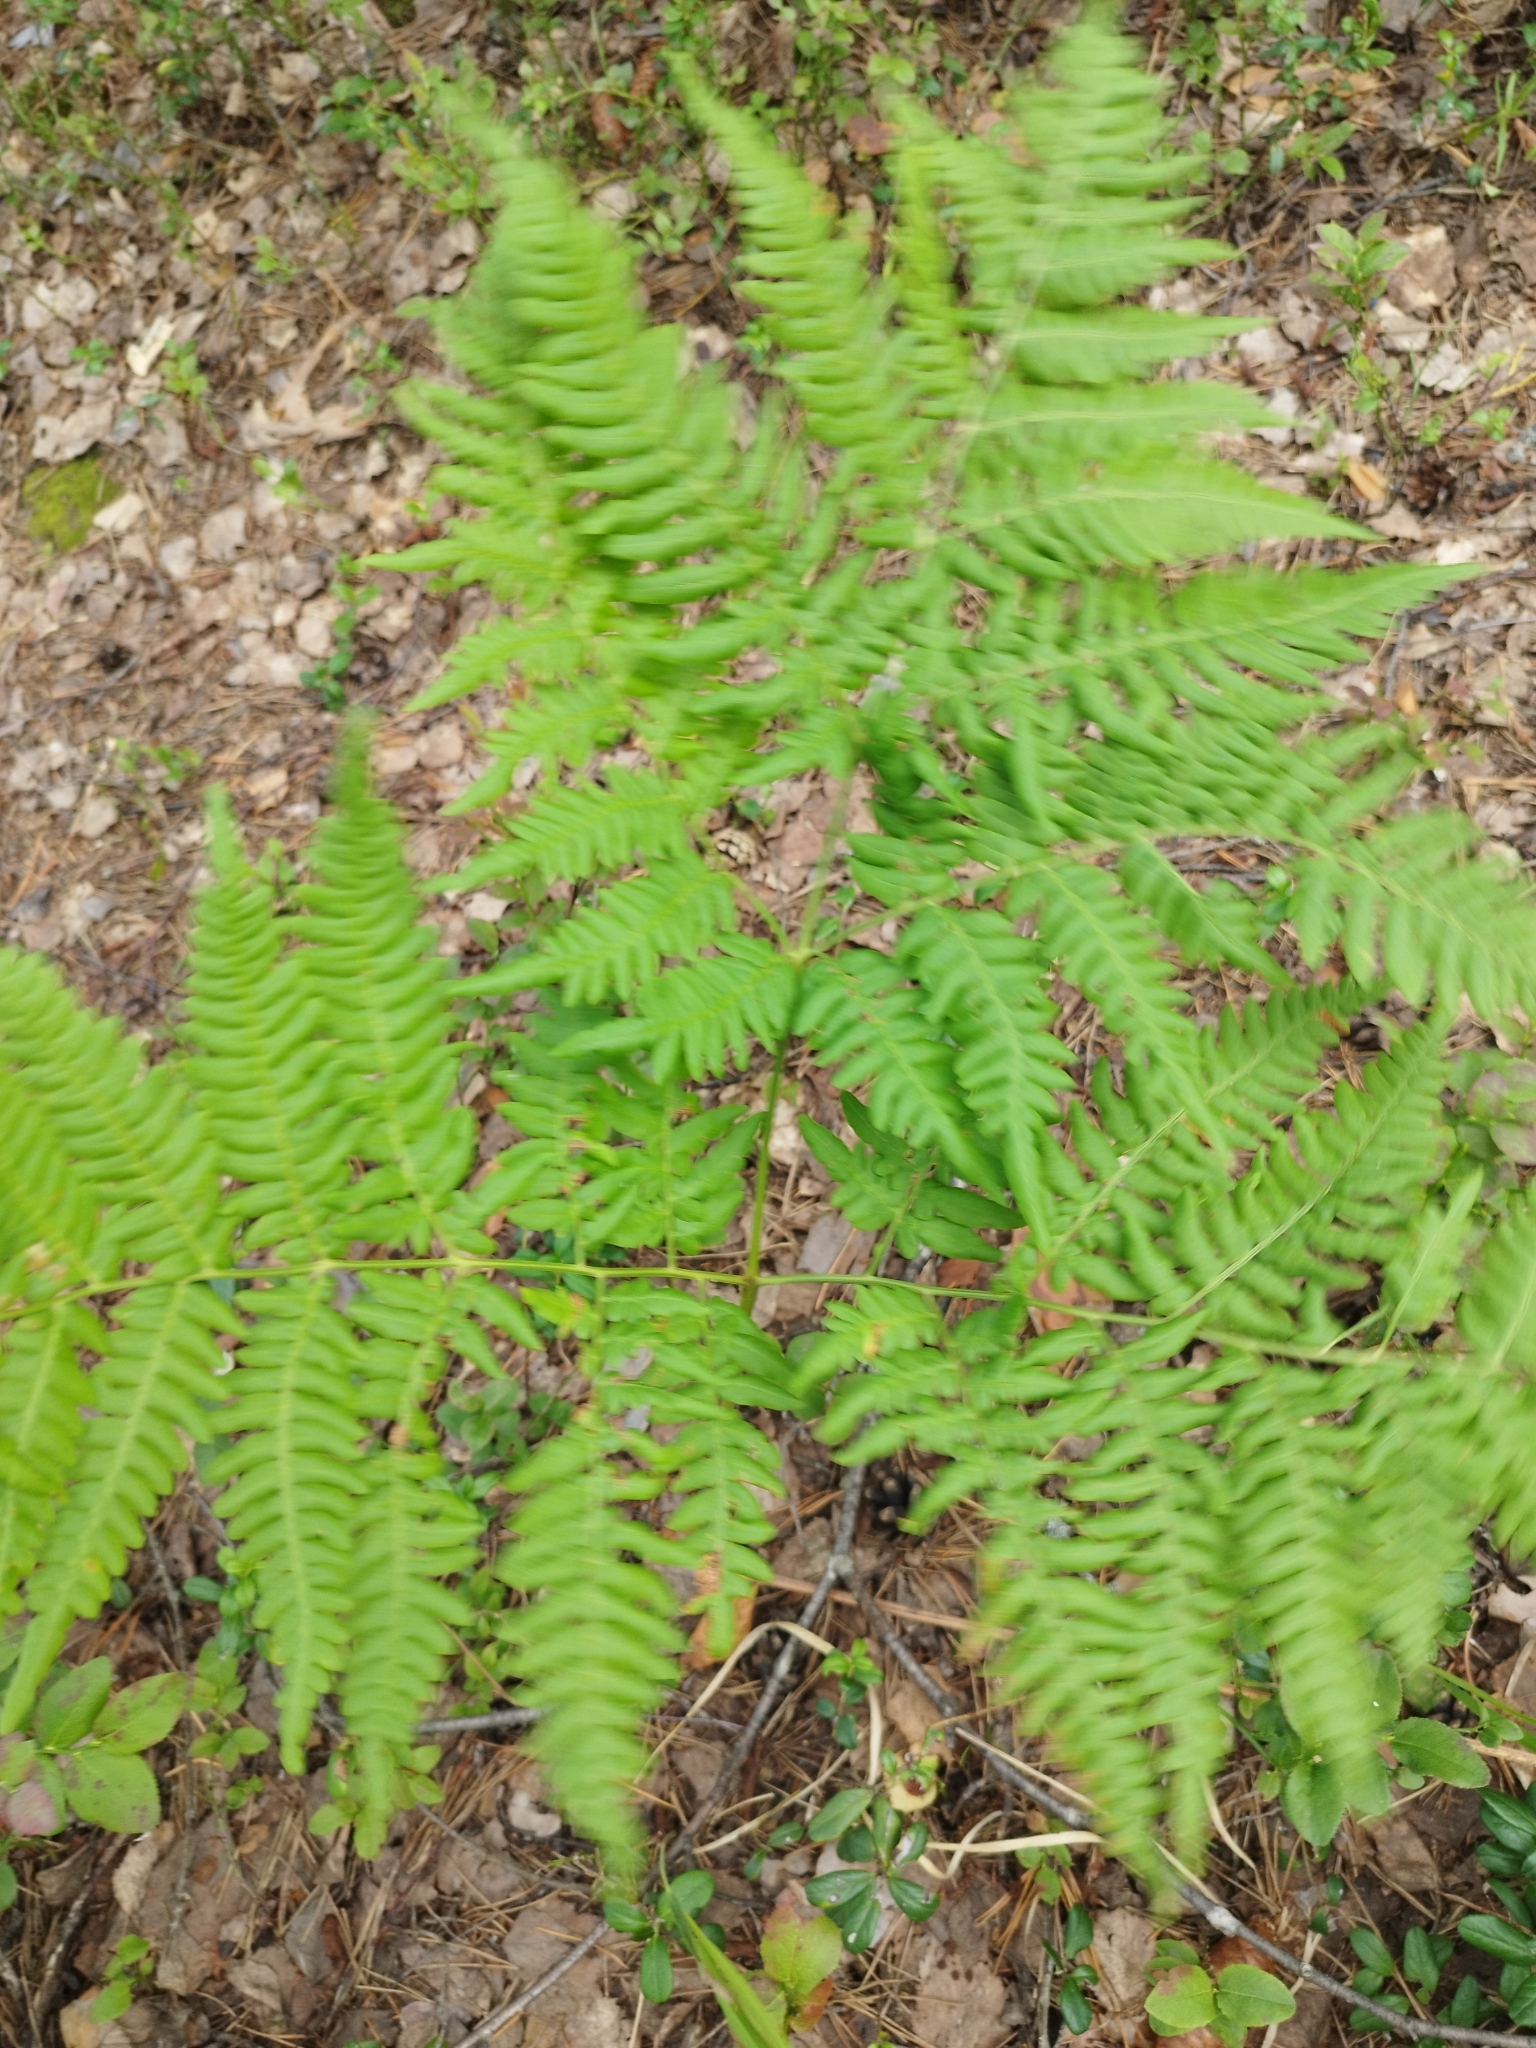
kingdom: Plantae
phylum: Tracheophyta
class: Polypodiopsida
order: Polypodiales
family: Dennstaedtiaceae
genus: Pteridium
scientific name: Pteridium aquilinum
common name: Bracken
